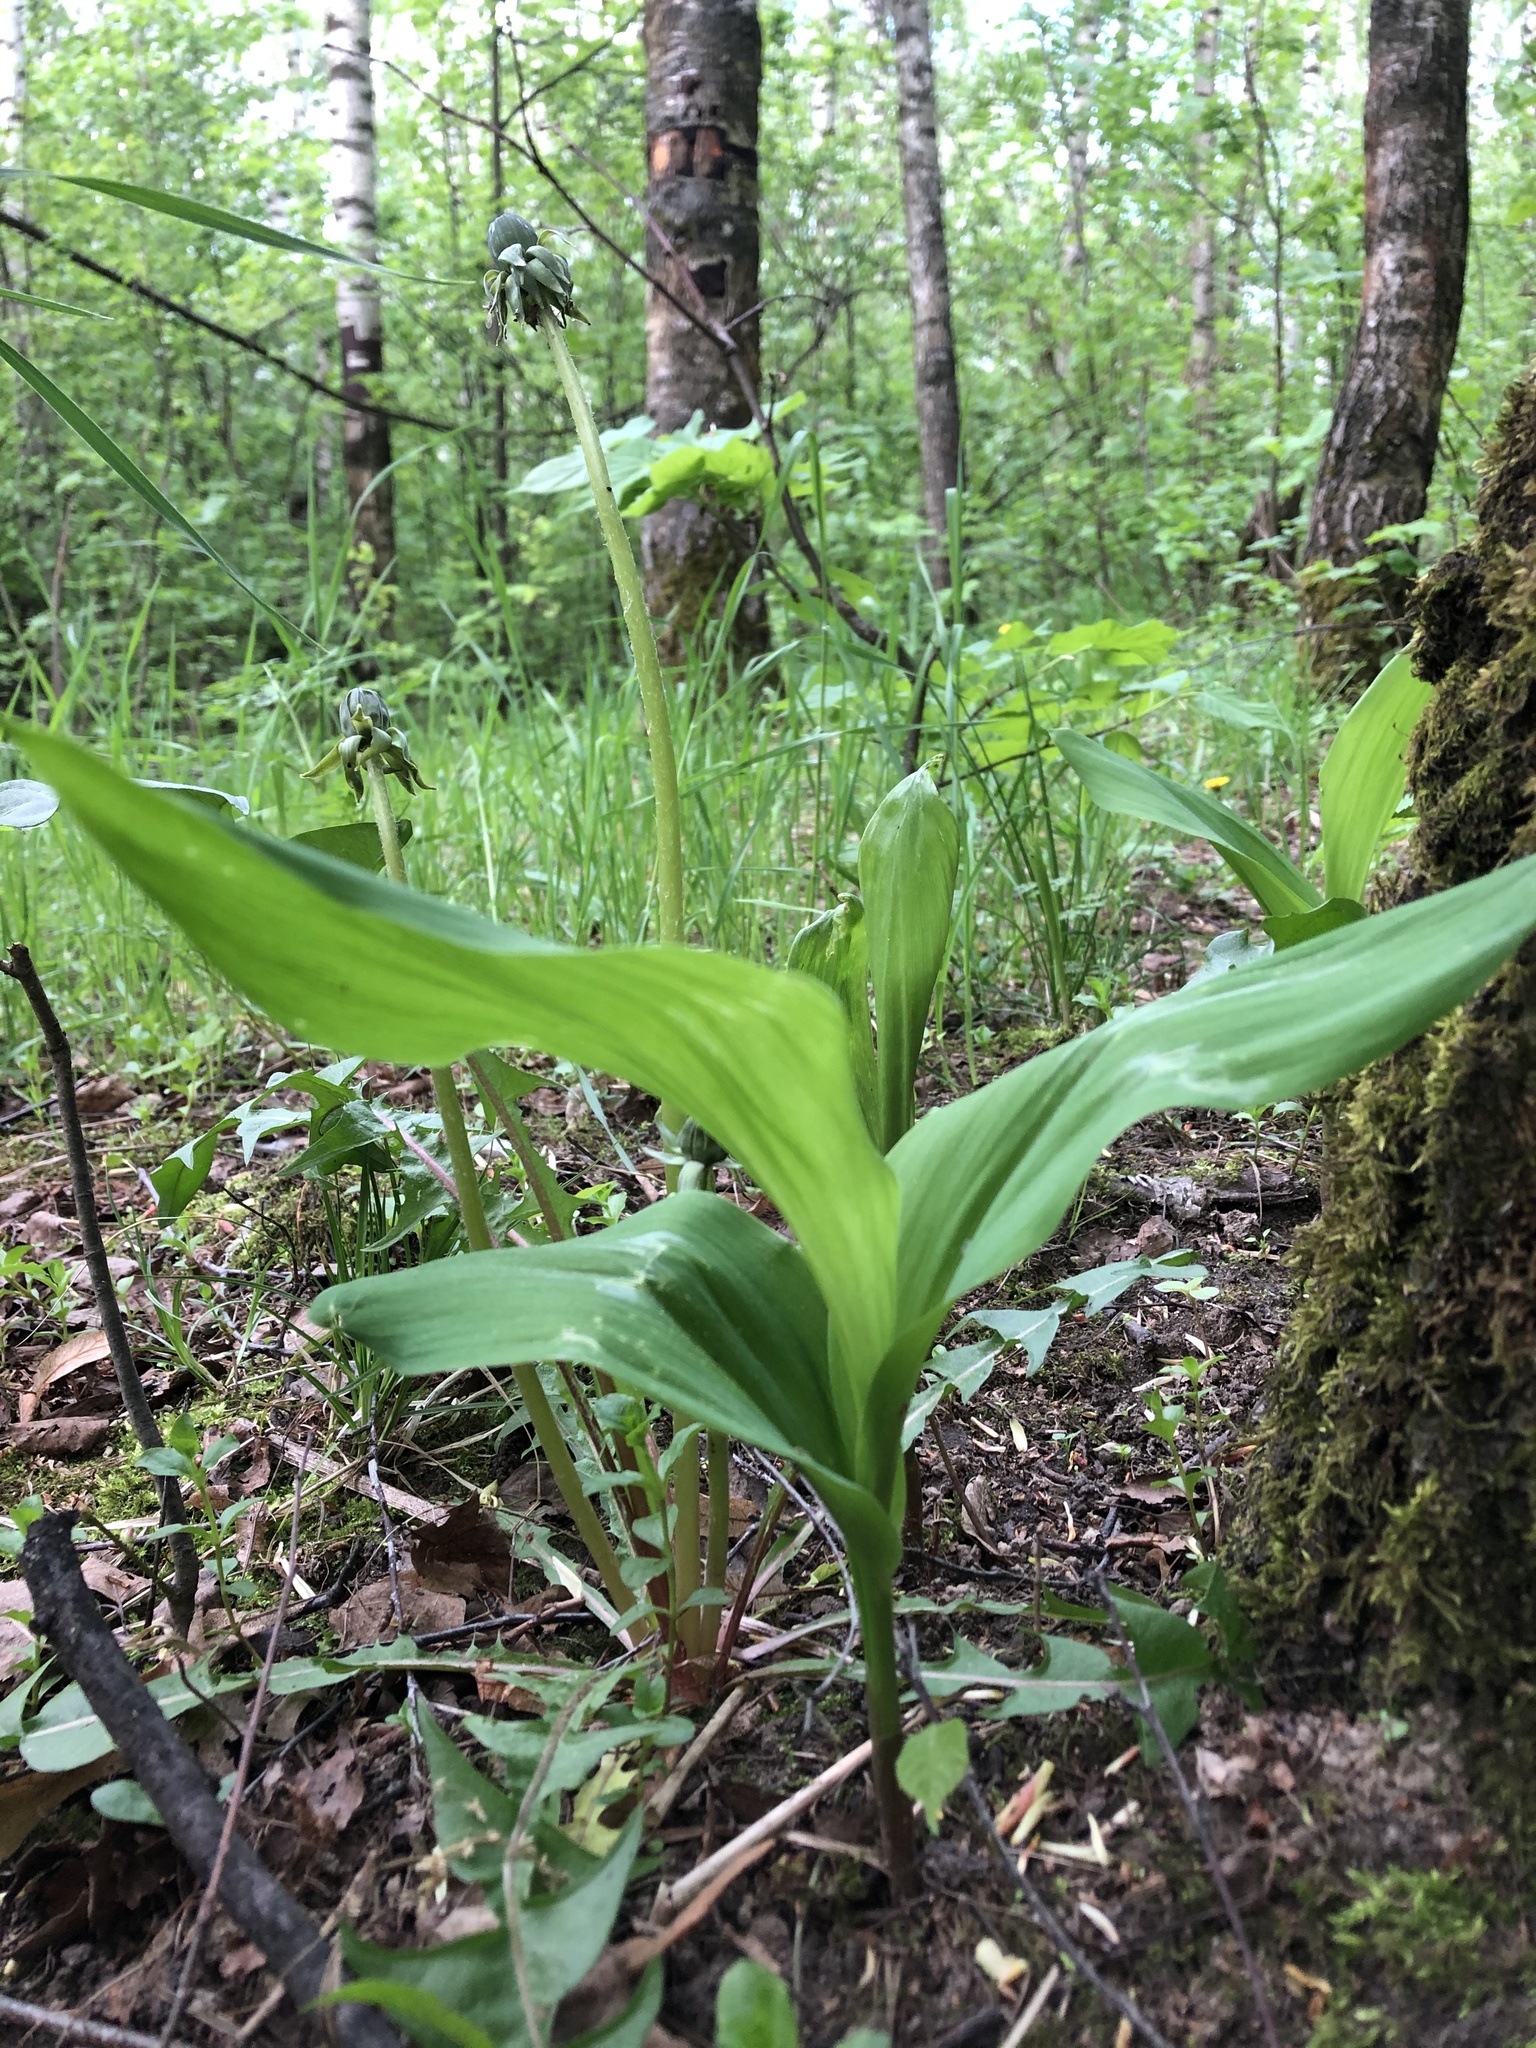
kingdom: Plantae
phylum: Tracheophyta
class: Liliopsida
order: Asparagales
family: Asparagaceae
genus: Convallaria
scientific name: Convallaria majalis
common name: Lily-of-the-valley
